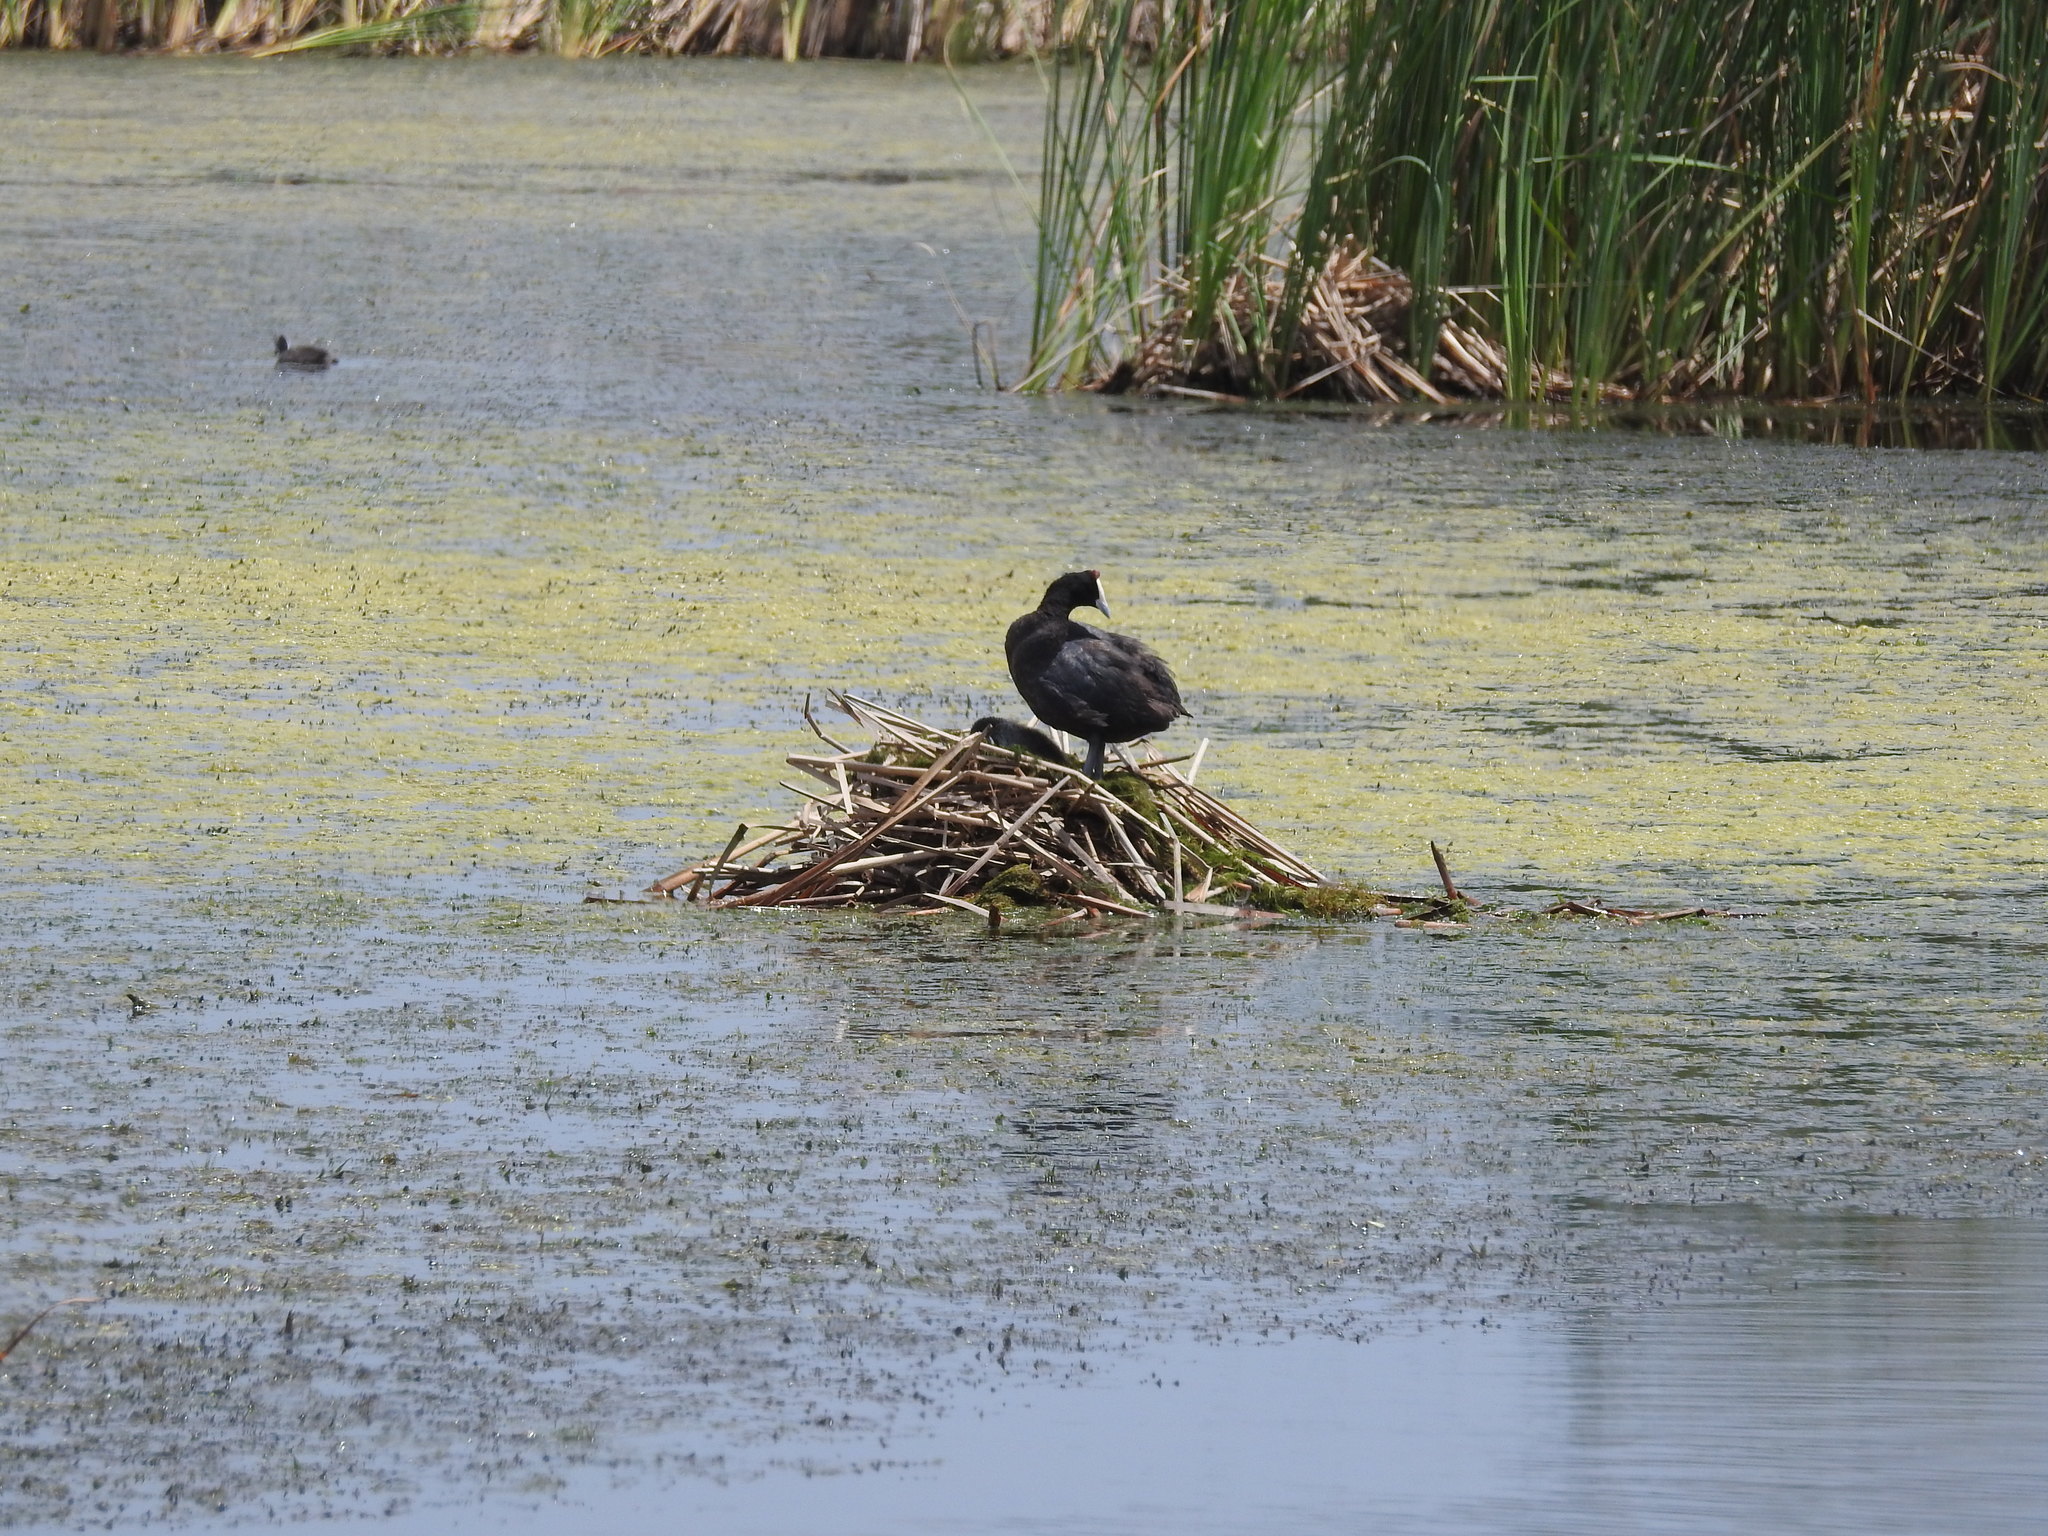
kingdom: Animalia
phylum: Chordata
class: Aves
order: Gruiformes
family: Rallidae
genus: Fulica
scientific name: Fulica cristata
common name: Red-knobbed coot
